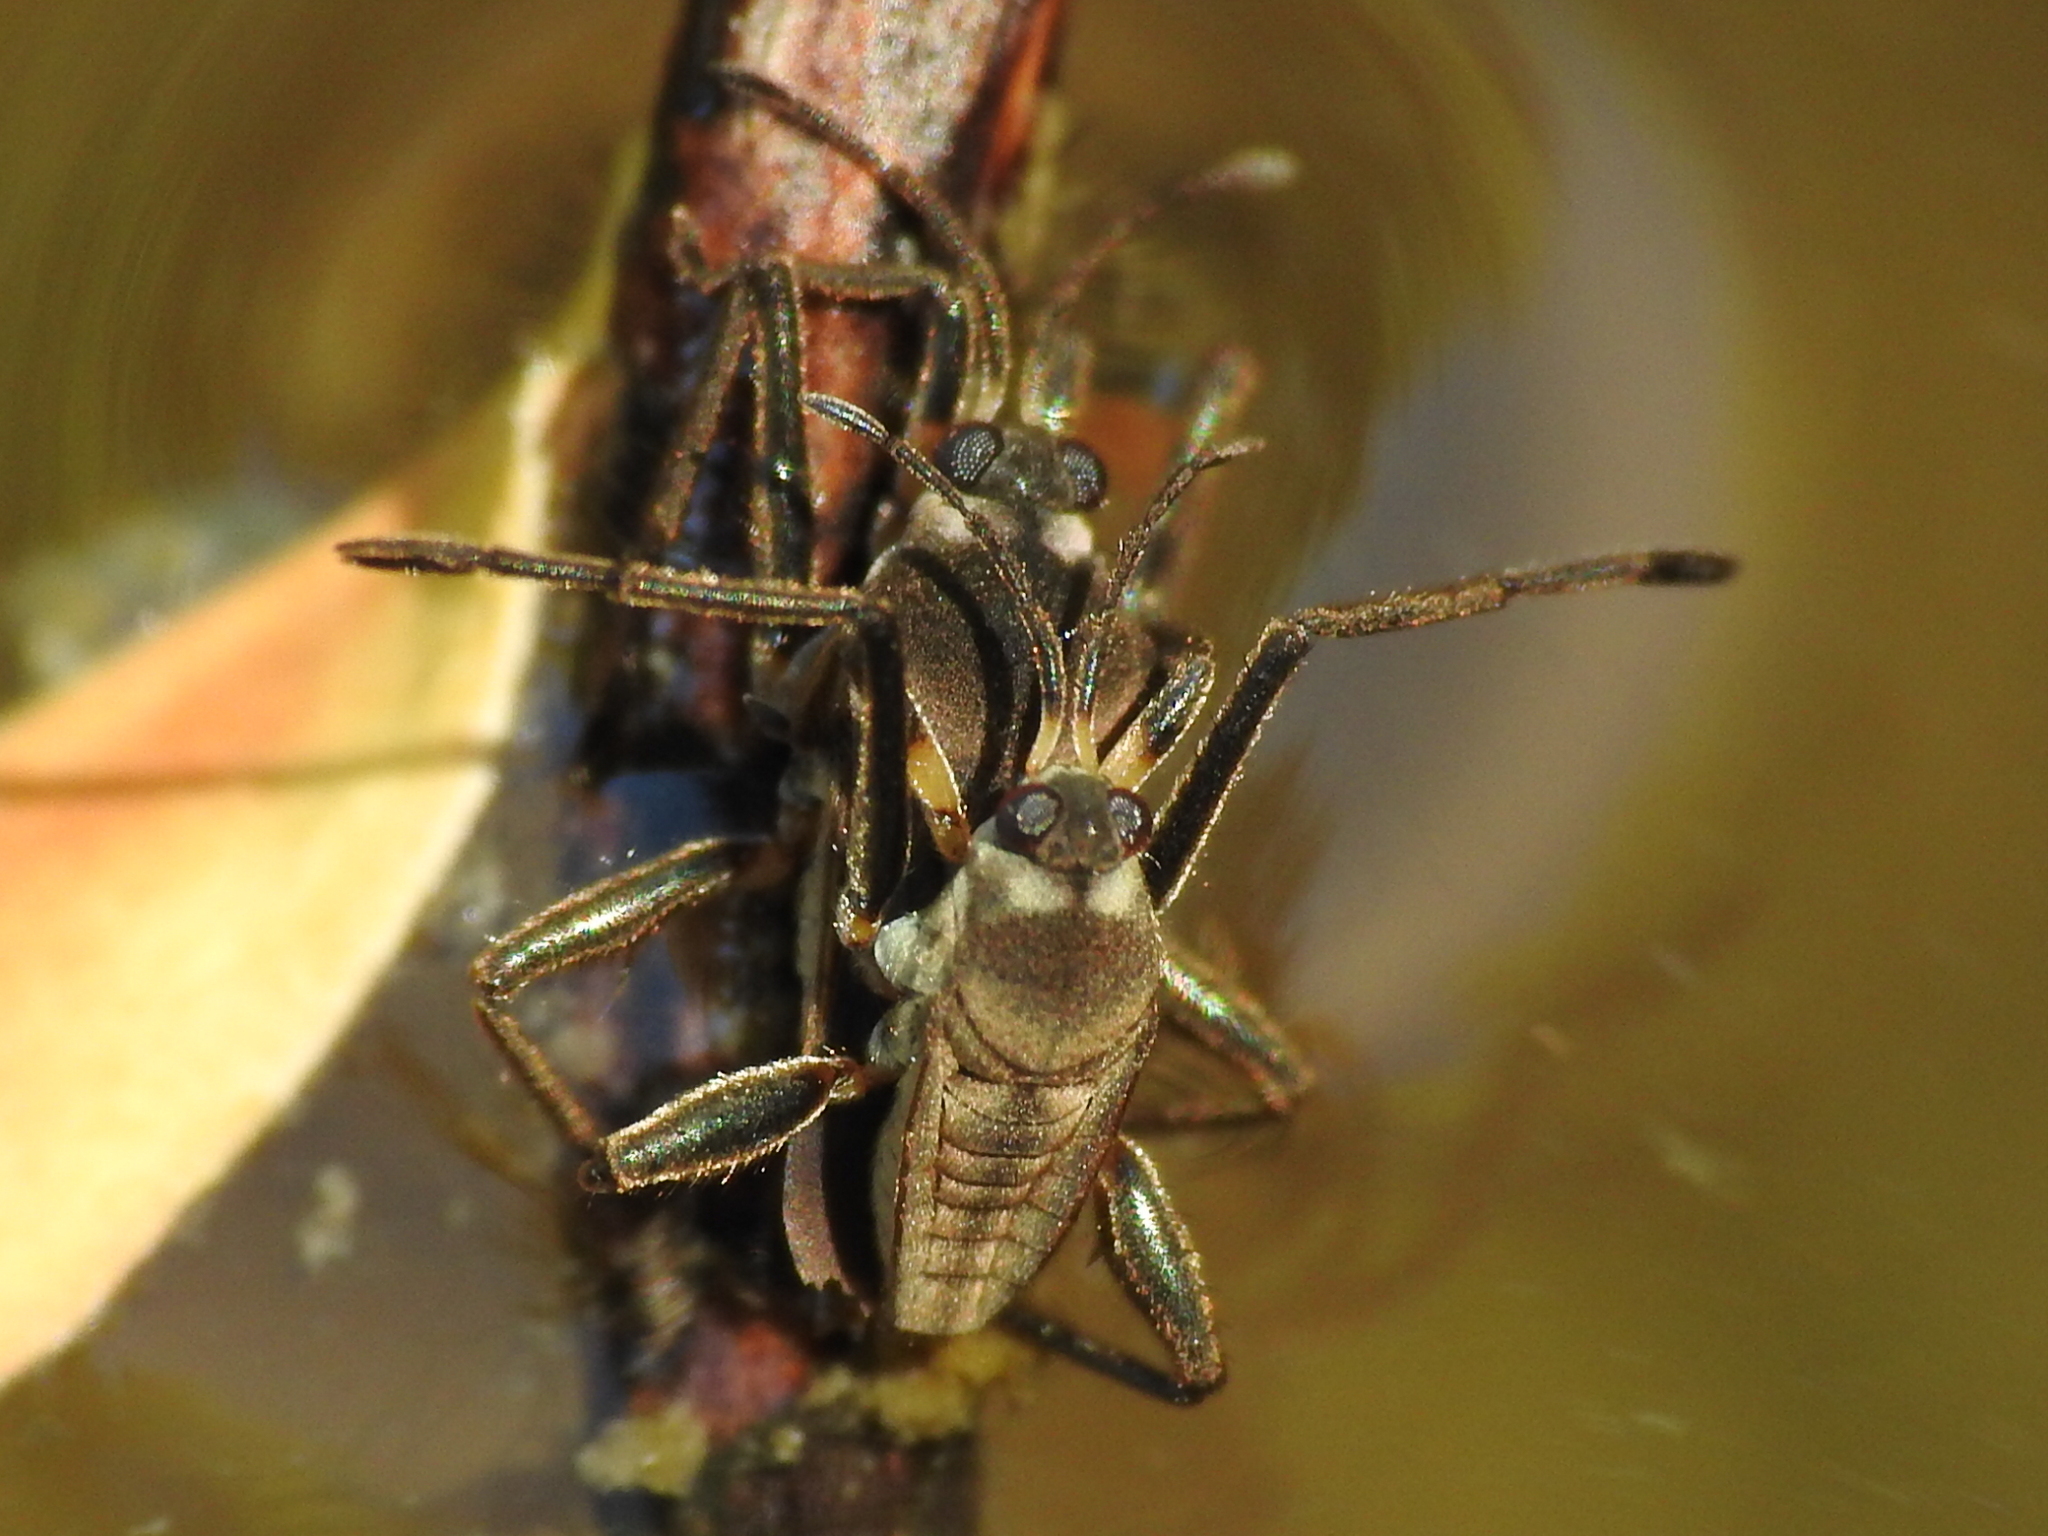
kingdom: Animalia
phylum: Arthropoda
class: Insecta
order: Hemiptera
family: Veliidae
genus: Rhagovelia
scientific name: Rhagovelia
